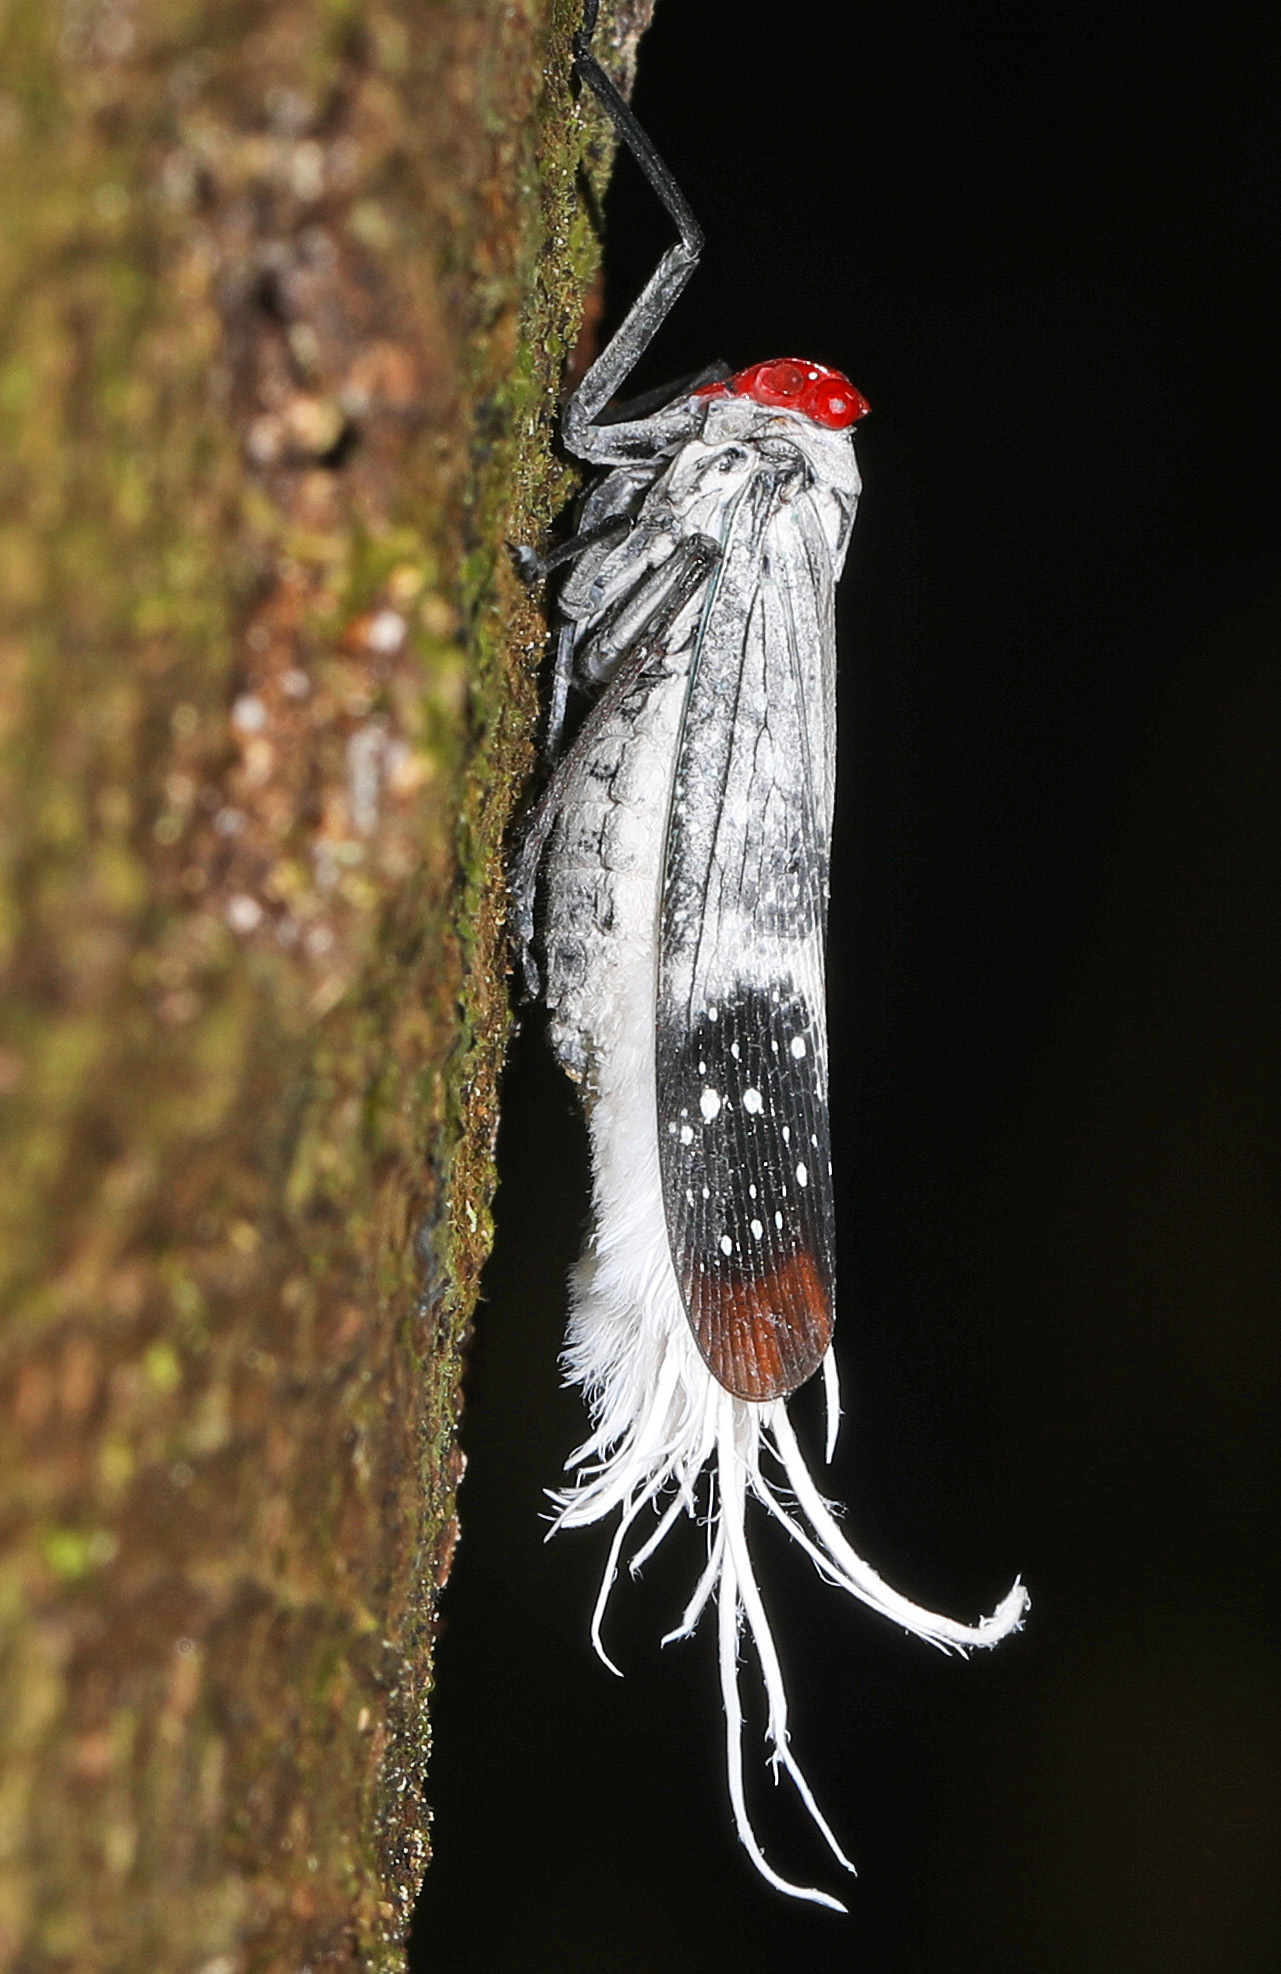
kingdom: Animalia
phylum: Arthropoda
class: Insecta
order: Hemiptera
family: Fulgoridae
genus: Lystra
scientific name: Lystra pulverulenta
